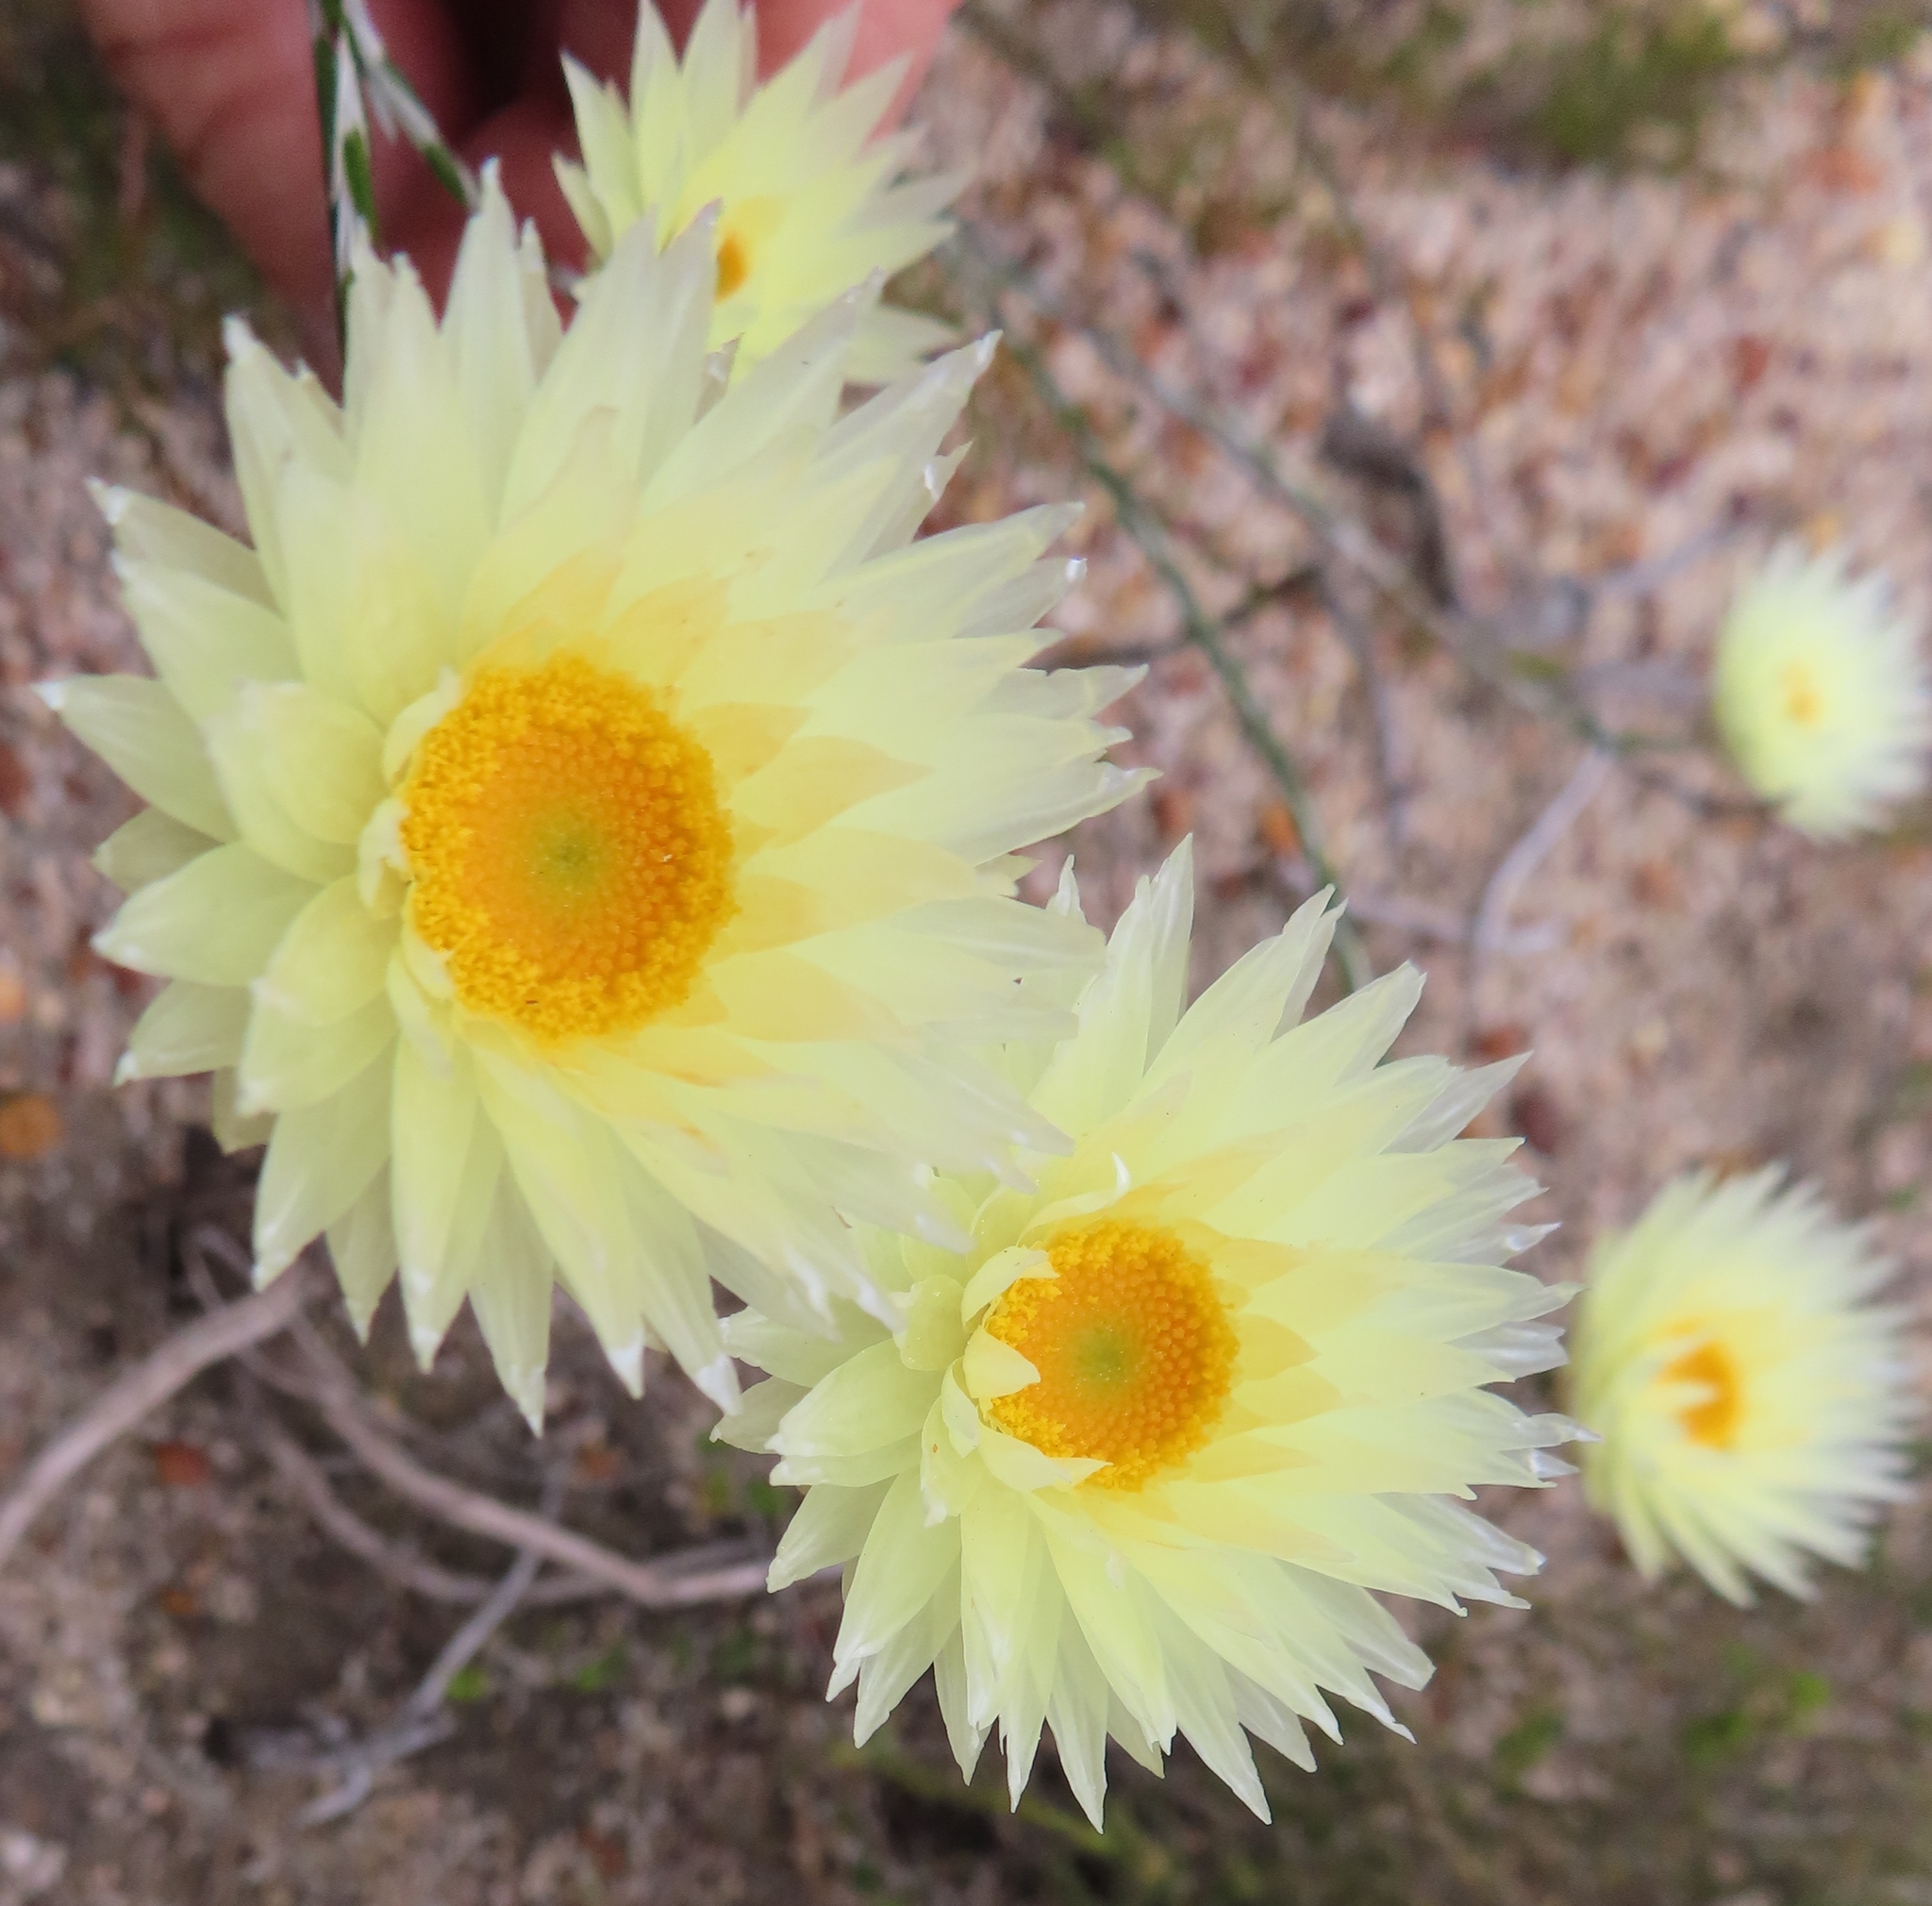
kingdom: Plantae
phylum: Tracheophyta
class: Magnoliopsida
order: Asterales
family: Asteraceae
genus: Edmondia
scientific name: Edmondia sesamoides
